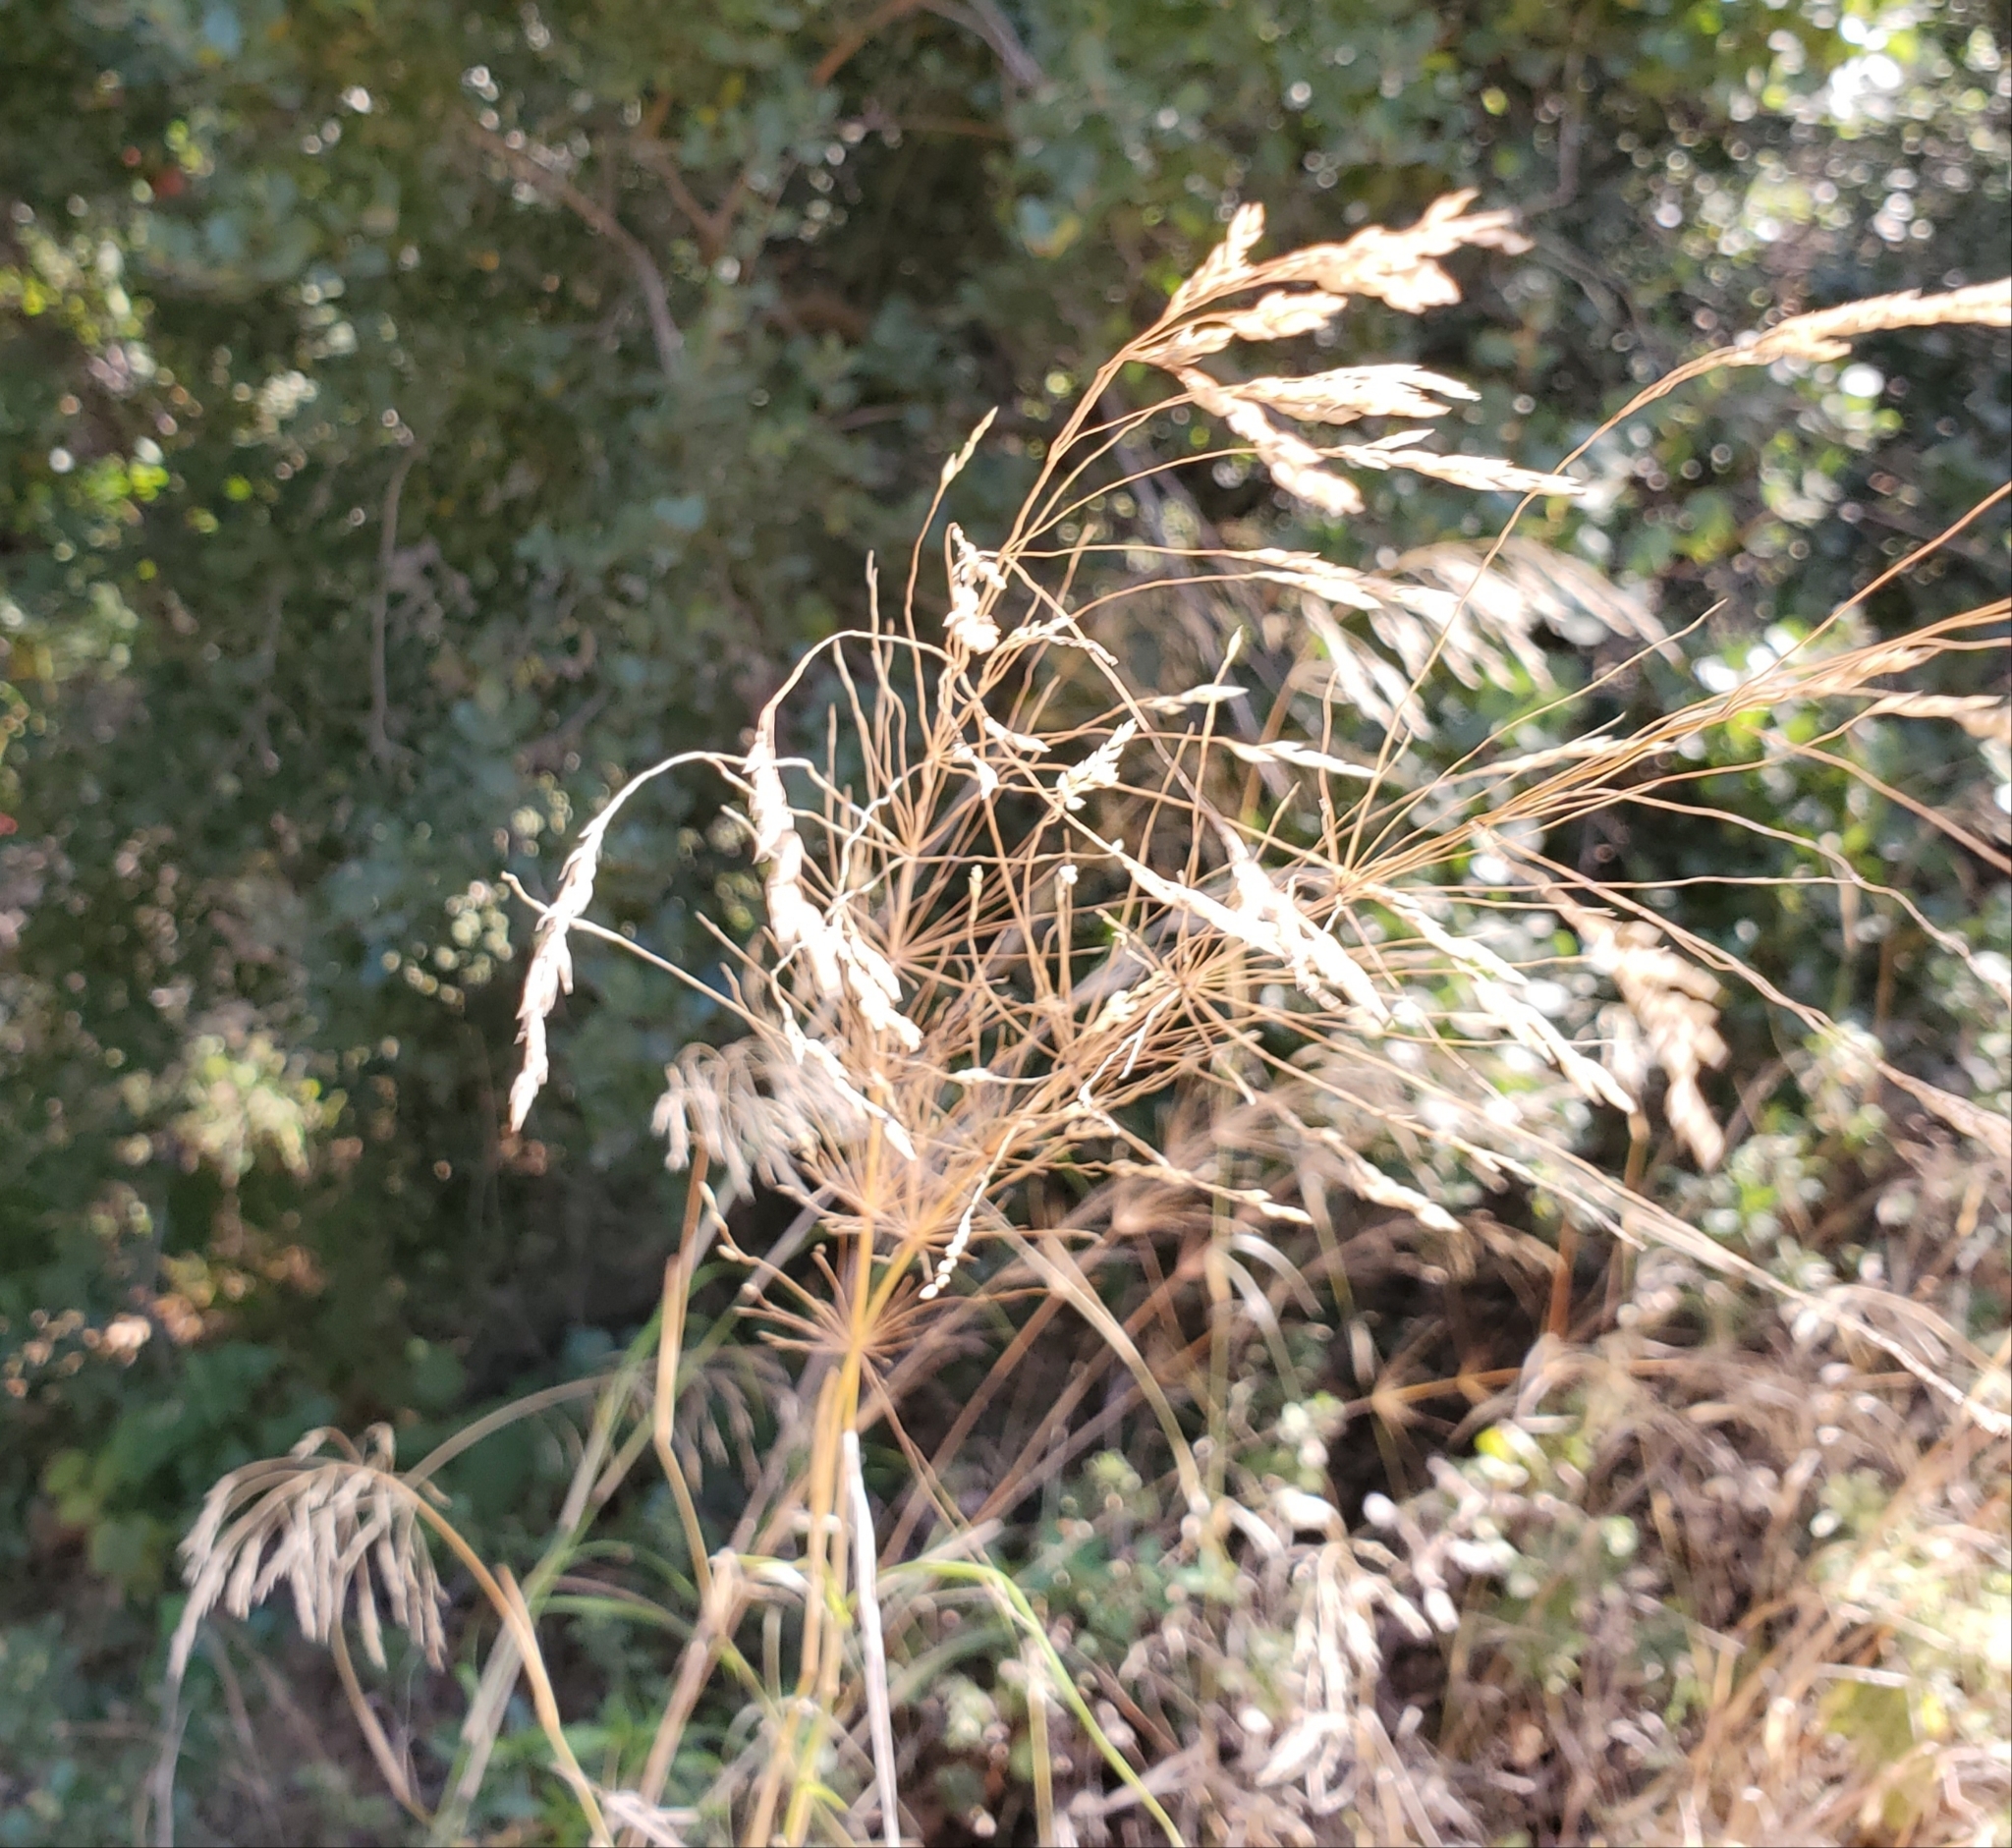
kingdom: Plantae
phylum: Tracheophyta
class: Liliopsida
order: Poales
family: Poaceae
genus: Oloptum
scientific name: Oloptum miliaceum
